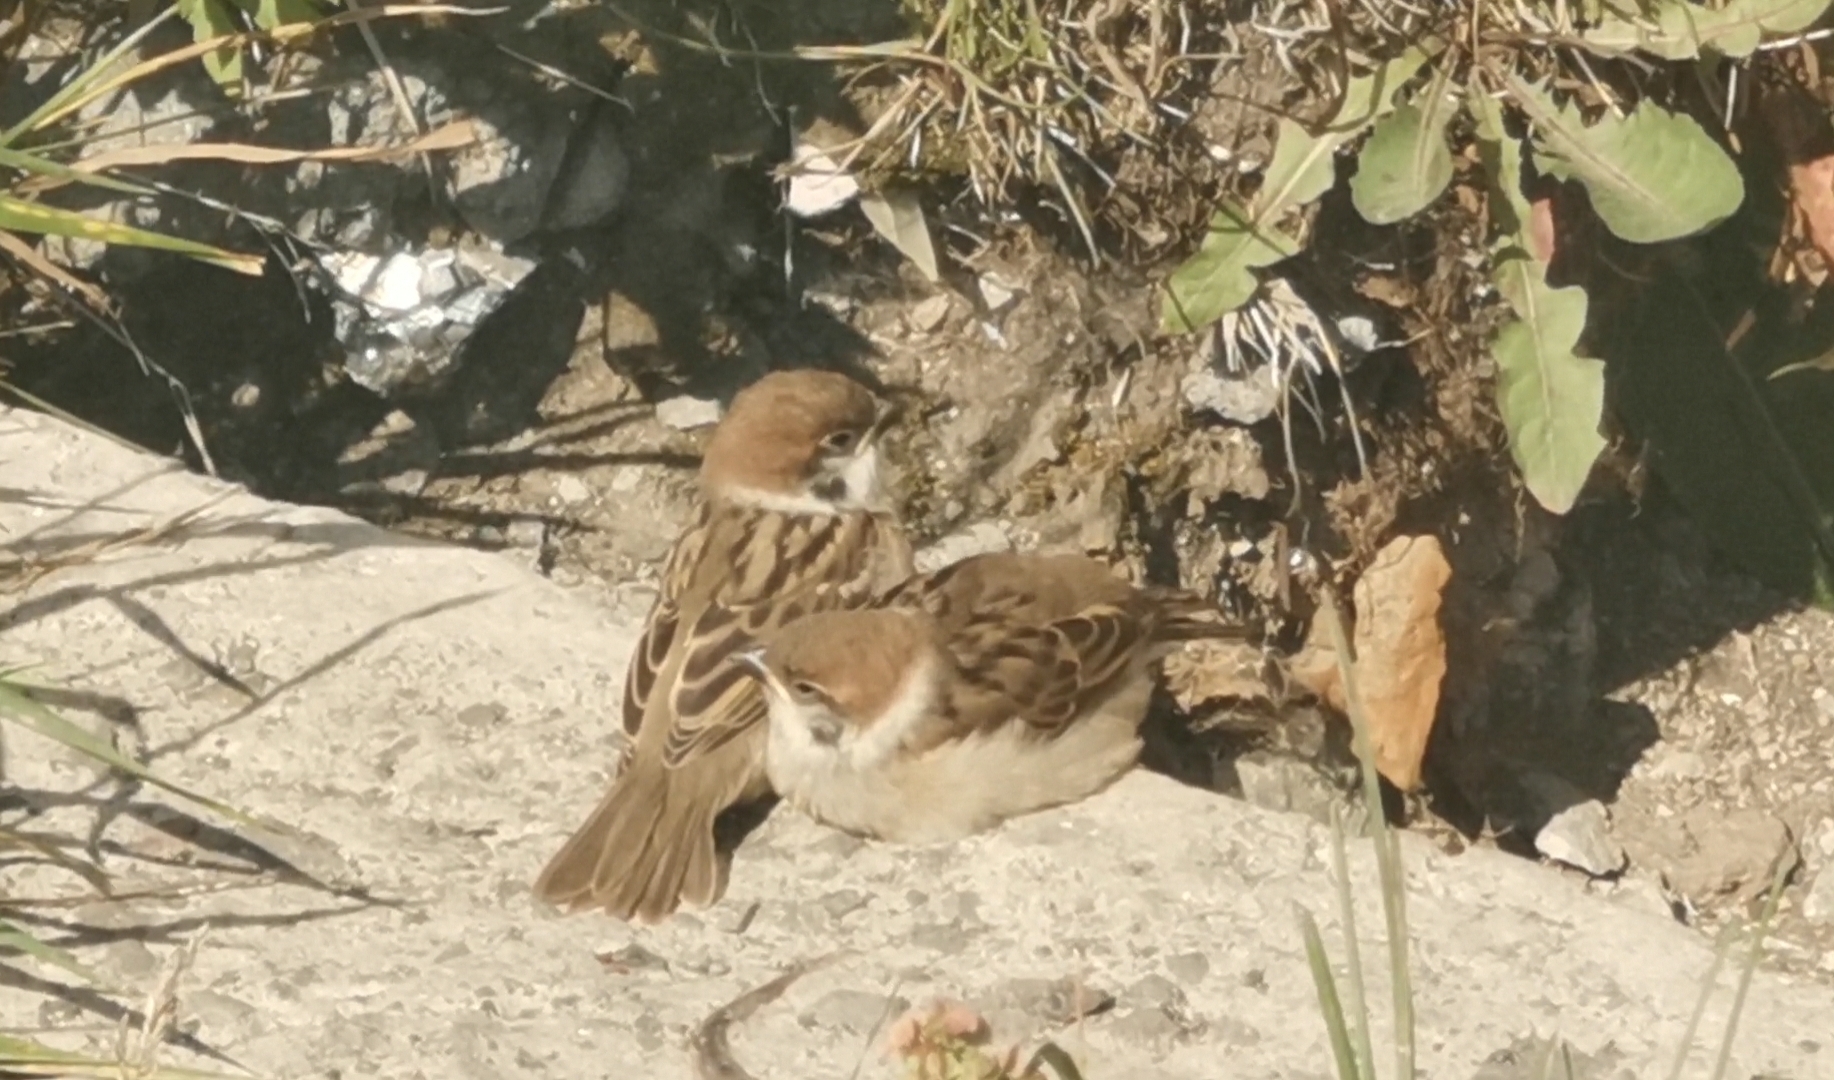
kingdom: Animalia
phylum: Chordata
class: Aves
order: Passeriformes
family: Passeridae
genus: Passer
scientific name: Passer montanus
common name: Eurasian tree sparrow
